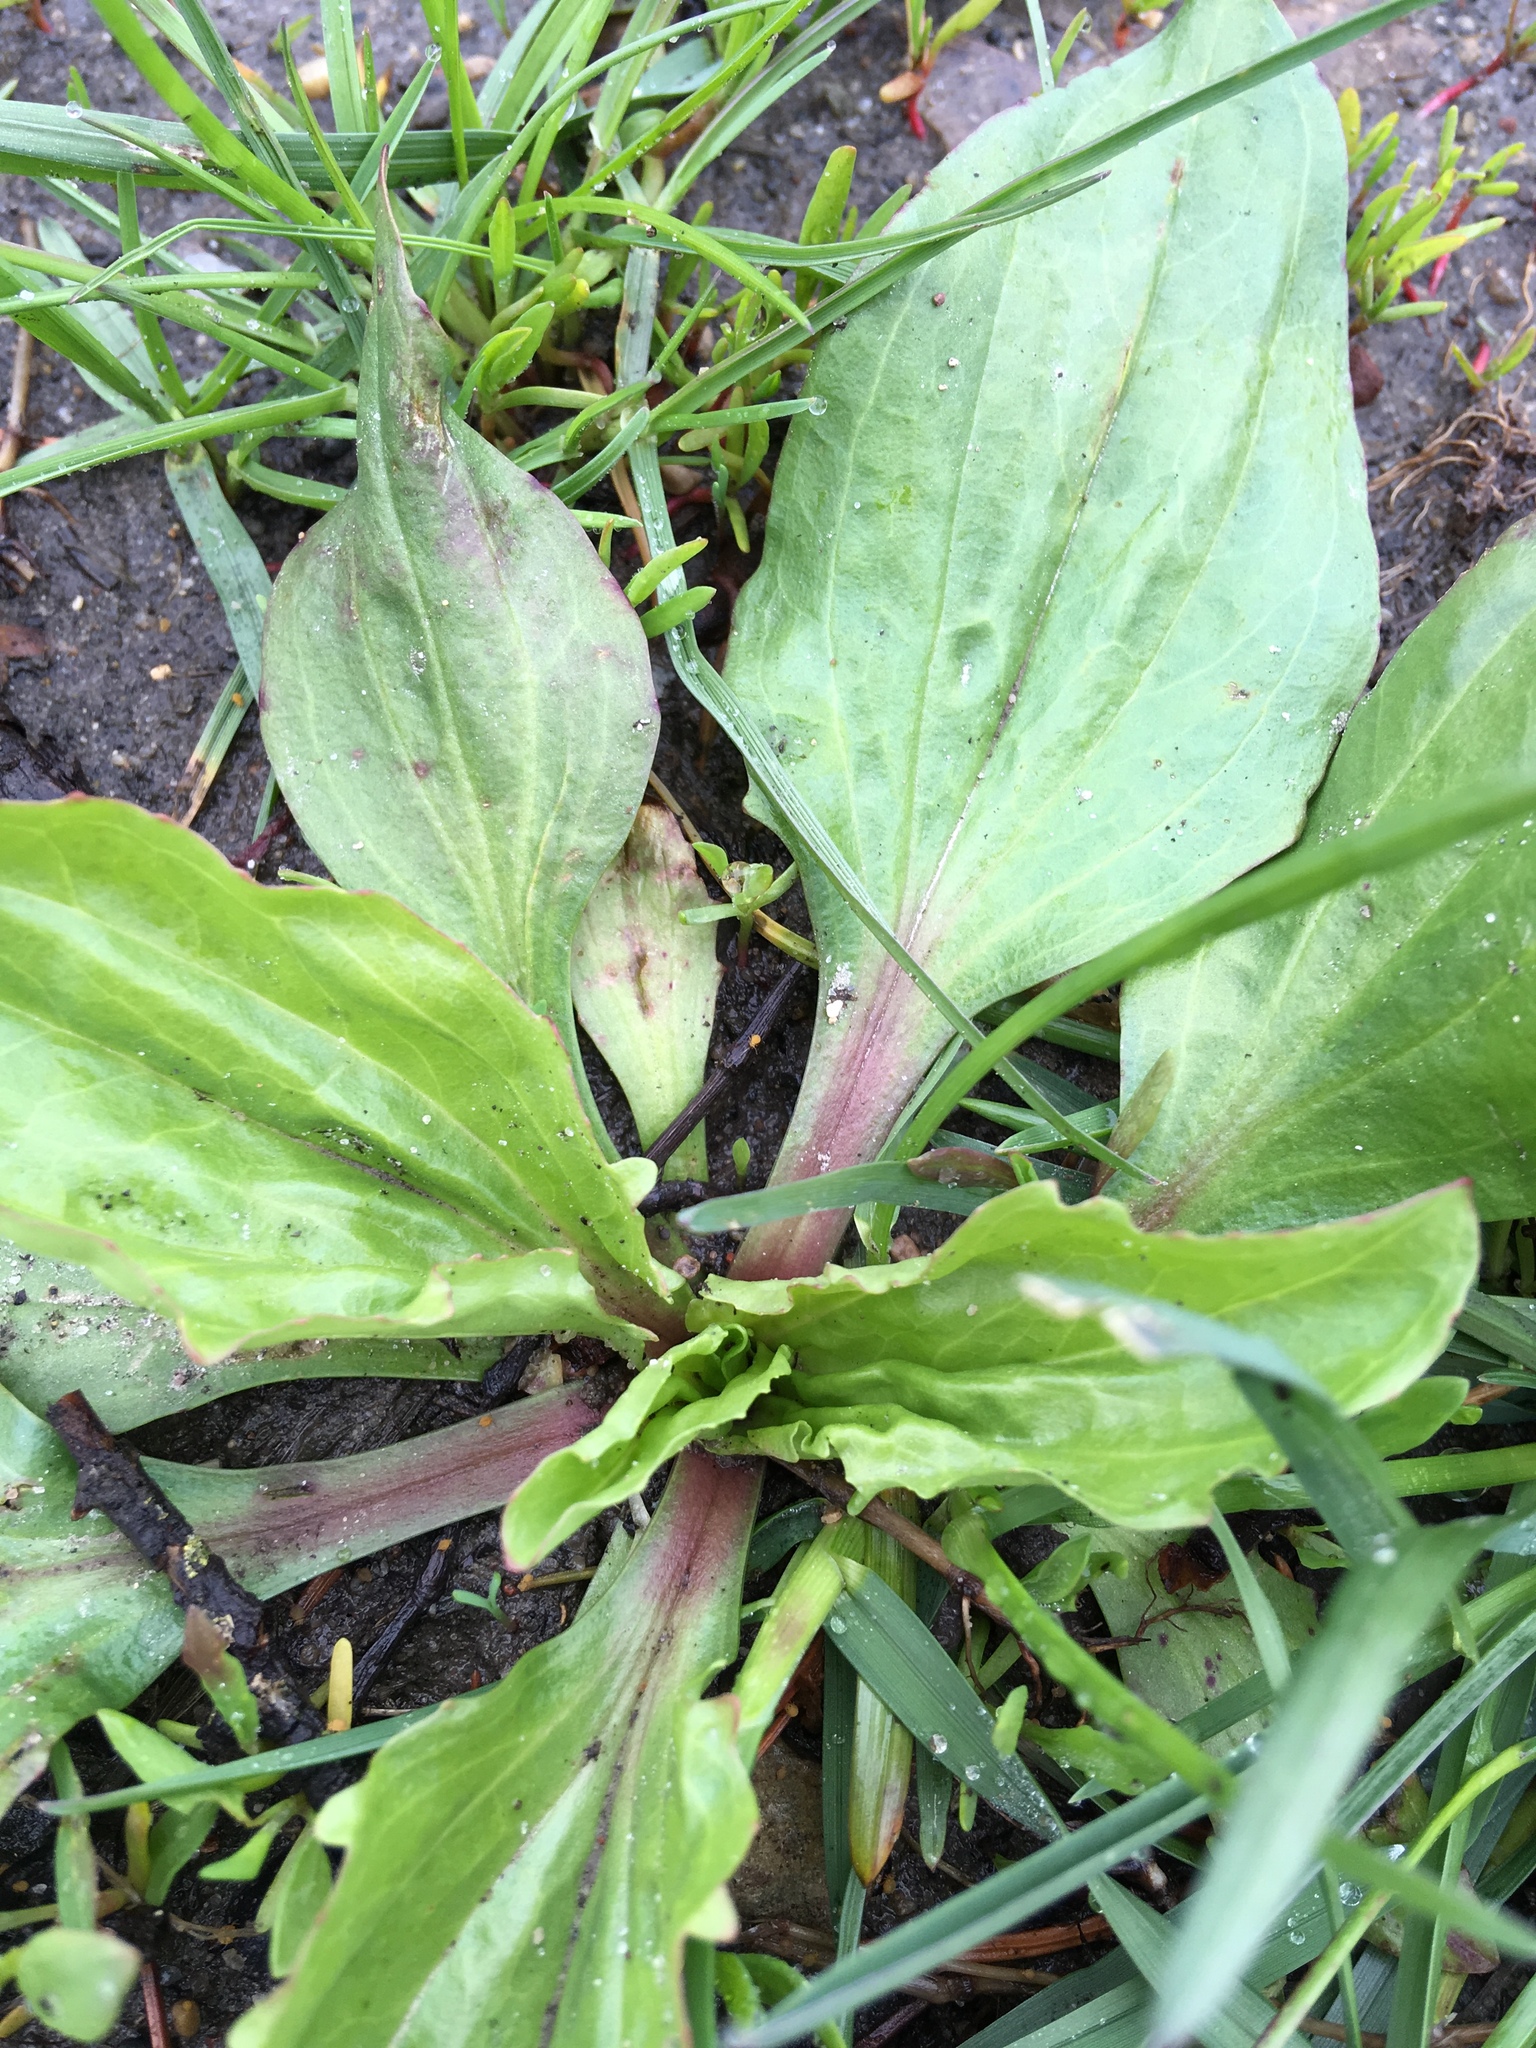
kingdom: Plantae
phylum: Tracheophyta
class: Magnoliopsida
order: Lamiales
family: Plantaginaceae
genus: Plantago
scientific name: Plantago rugelii
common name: American plantain
